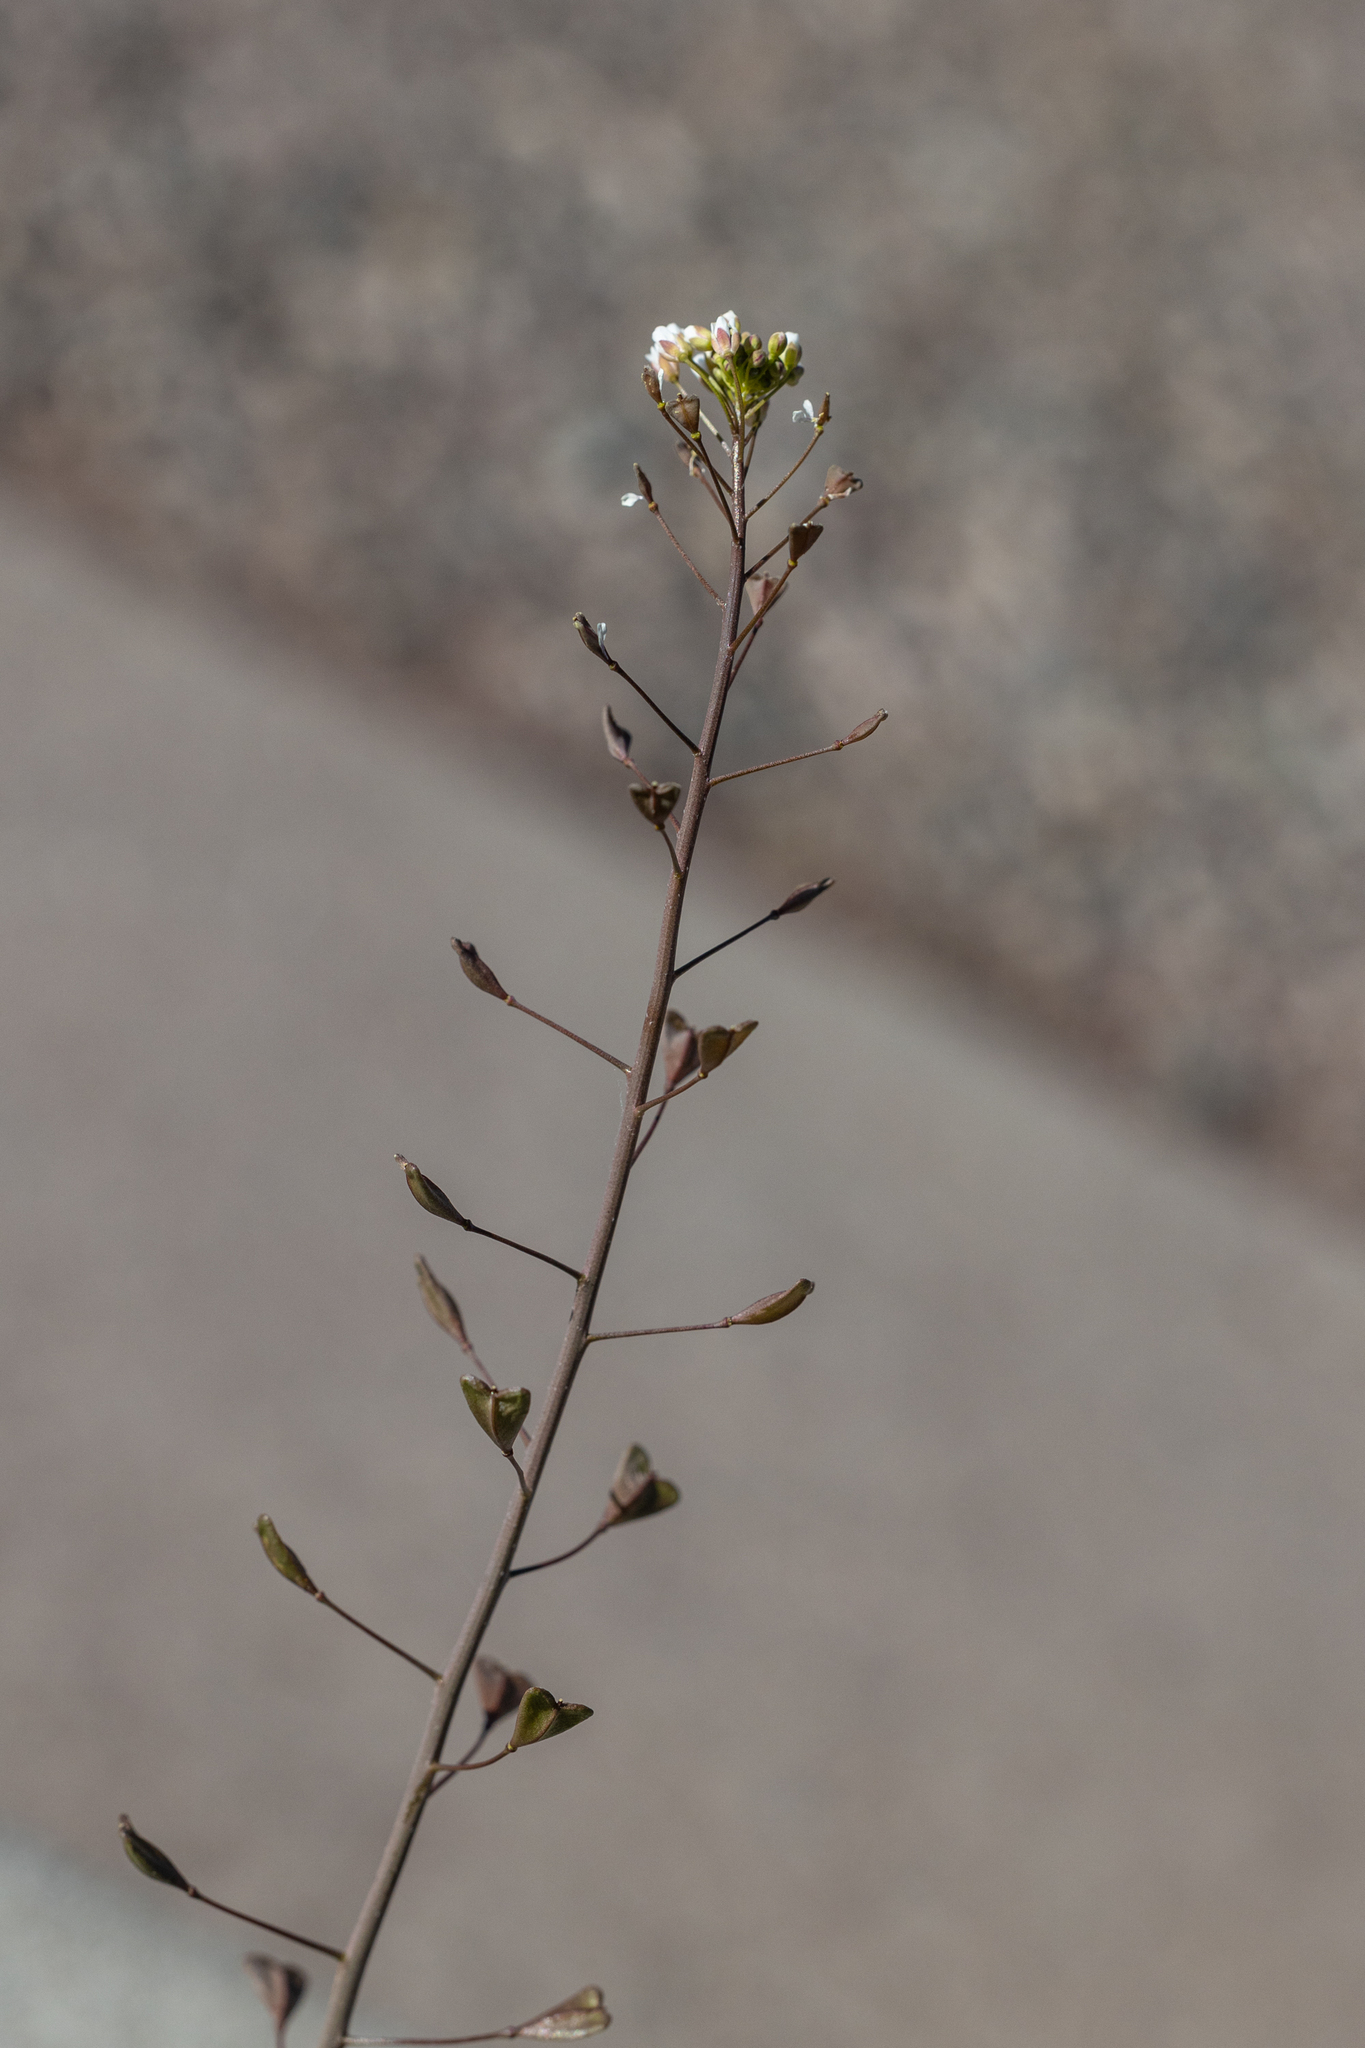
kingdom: Plantae
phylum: Tracheophyta
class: Magnoliopsida
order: Brassicales
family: Brassicaceae
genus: Capsella
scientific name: Capsella bursa-pastoris
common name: Shepherd's purse
